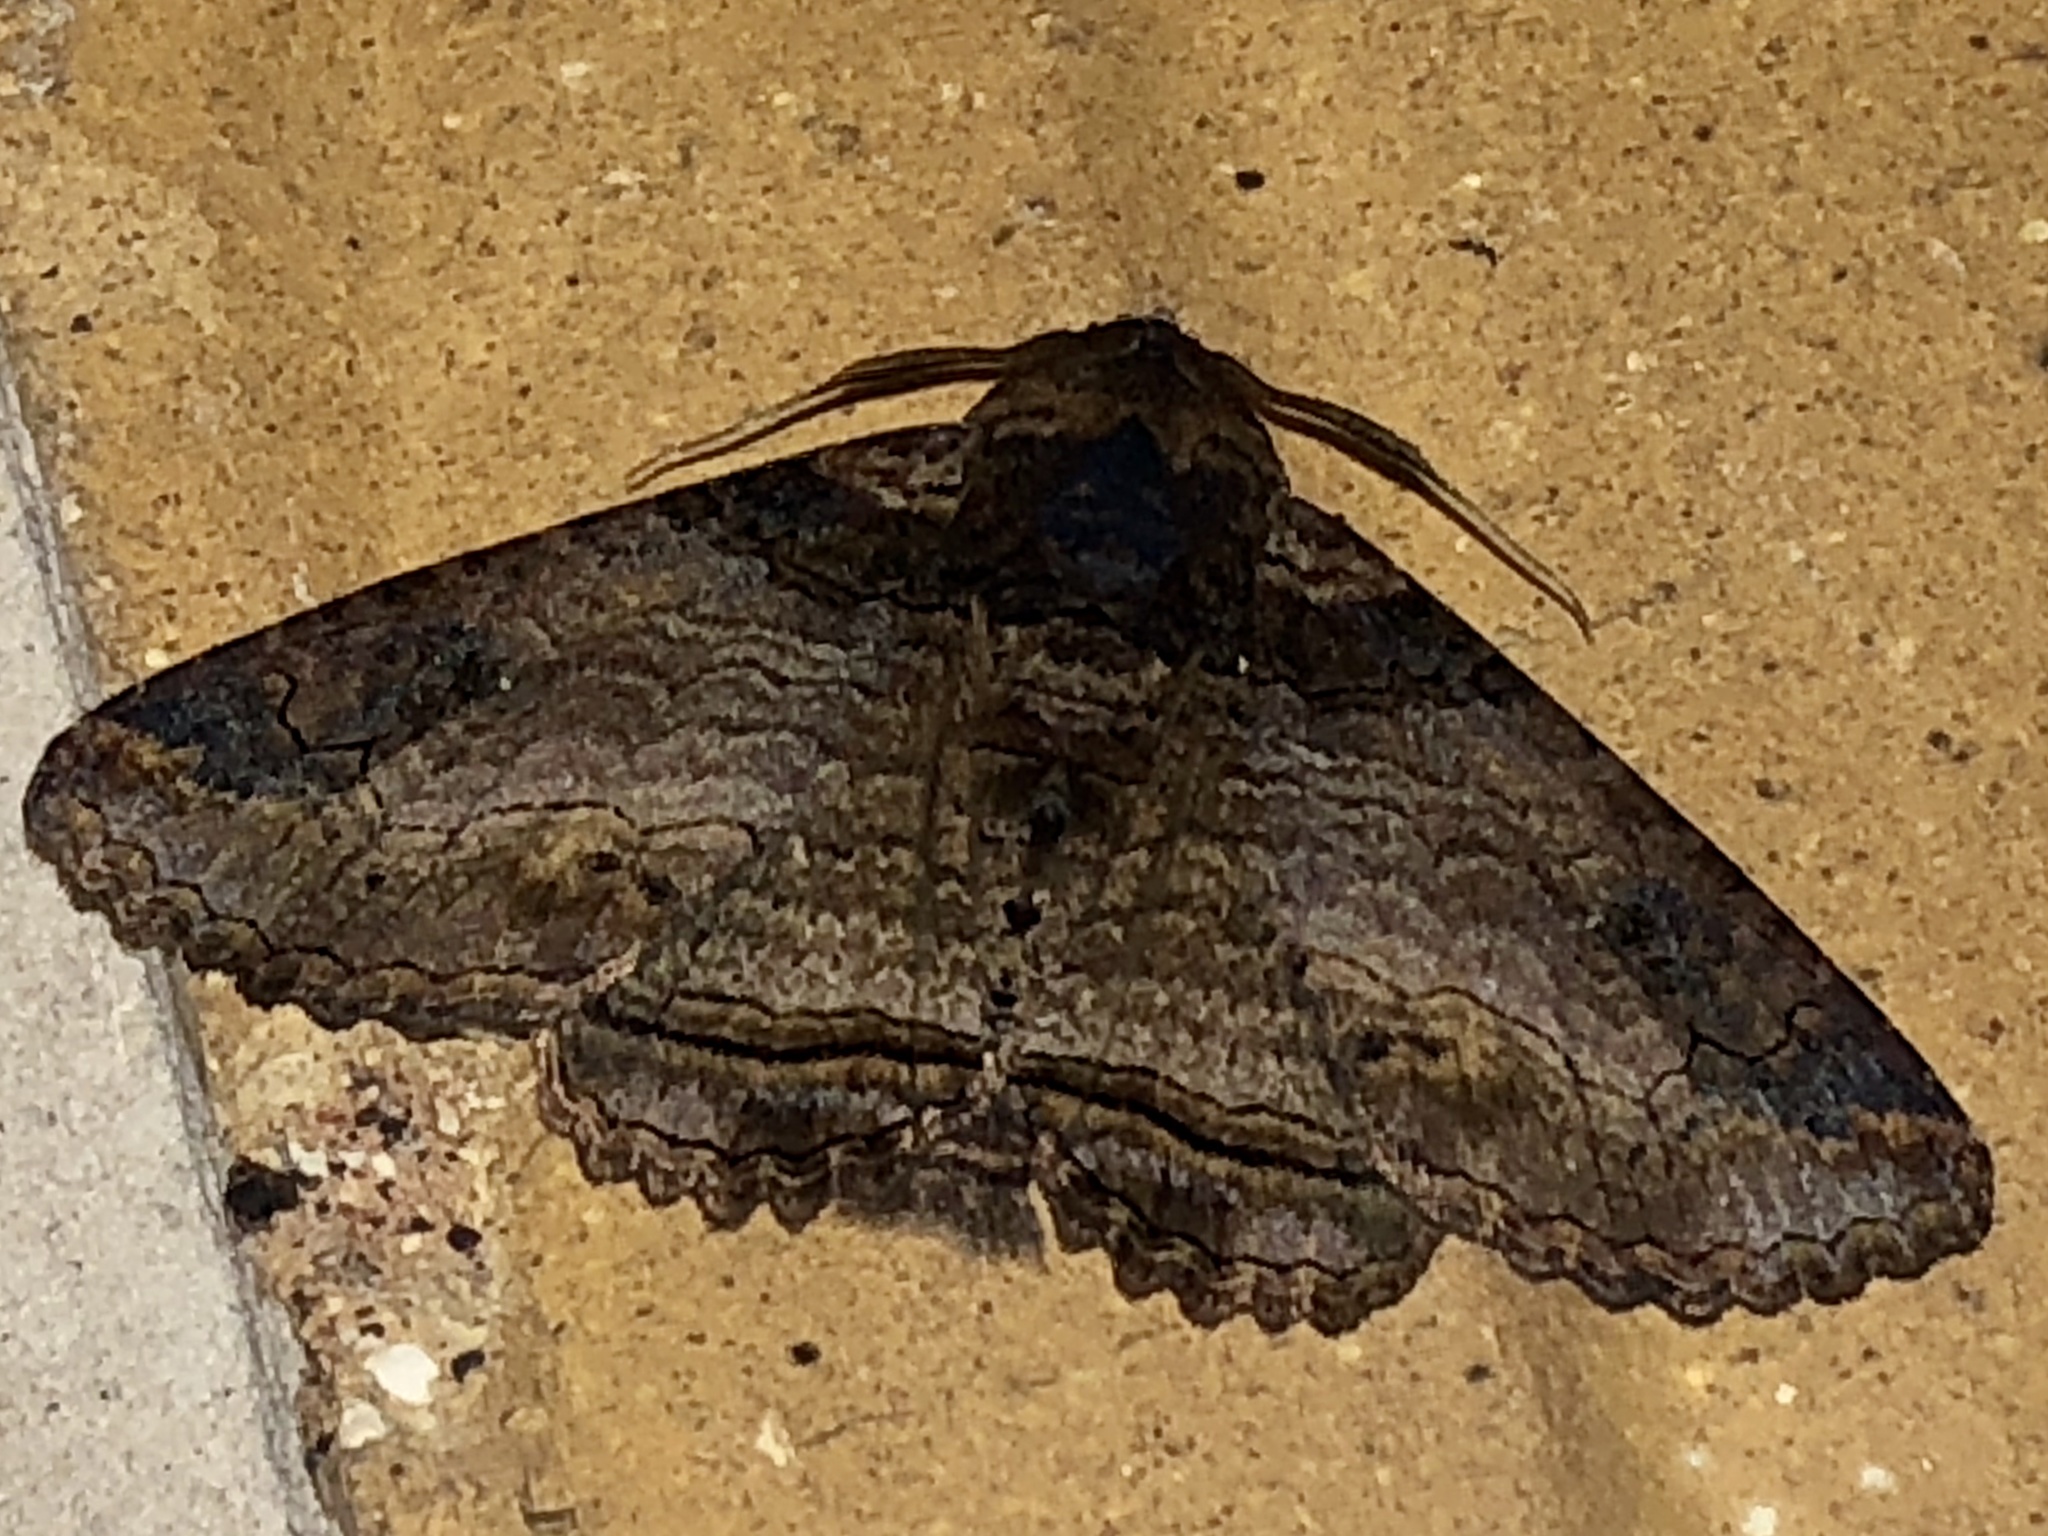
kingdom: Animalia
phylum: Arthropoda
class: Insecta
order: Lepidoptera
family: Erebidae
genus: Pericyma
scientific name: Pericyma cruegeri
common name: Poinciana looper
